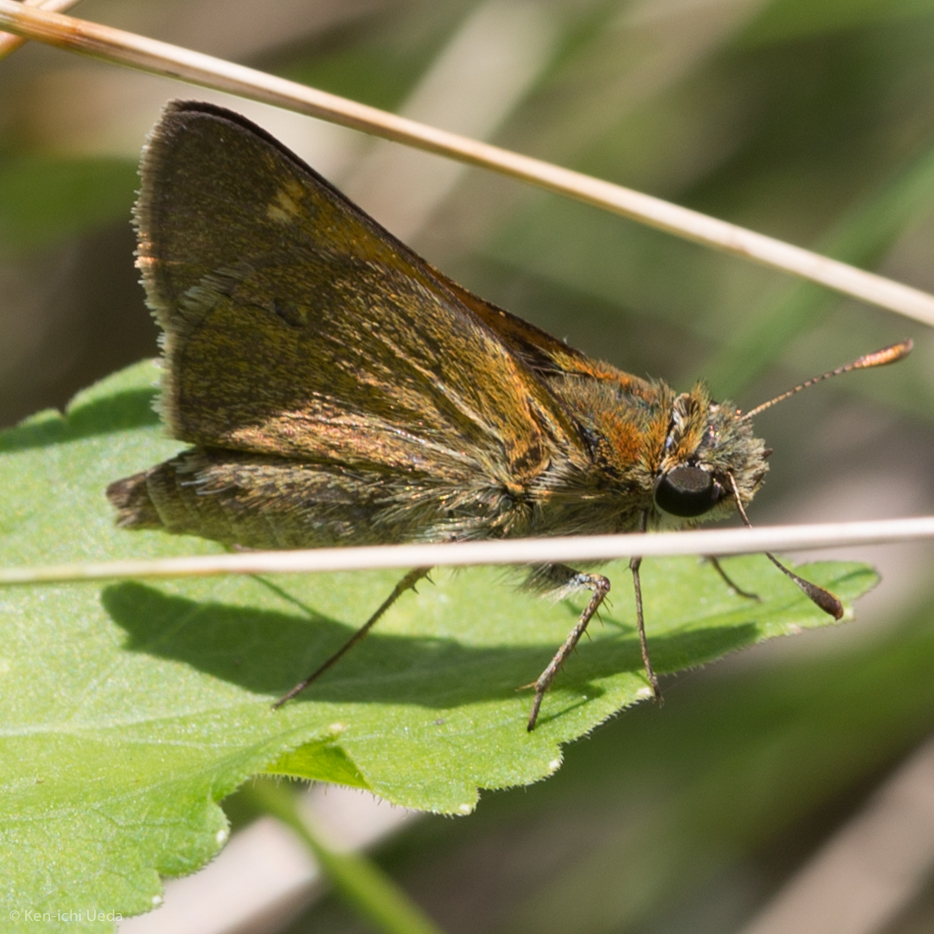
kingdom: Animalia
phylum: Arthropoda
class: Insecta
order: Lepidoptera
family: Hesperiidae
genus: Euphyes
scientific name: Euphyes vestris
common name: Dun skipper
